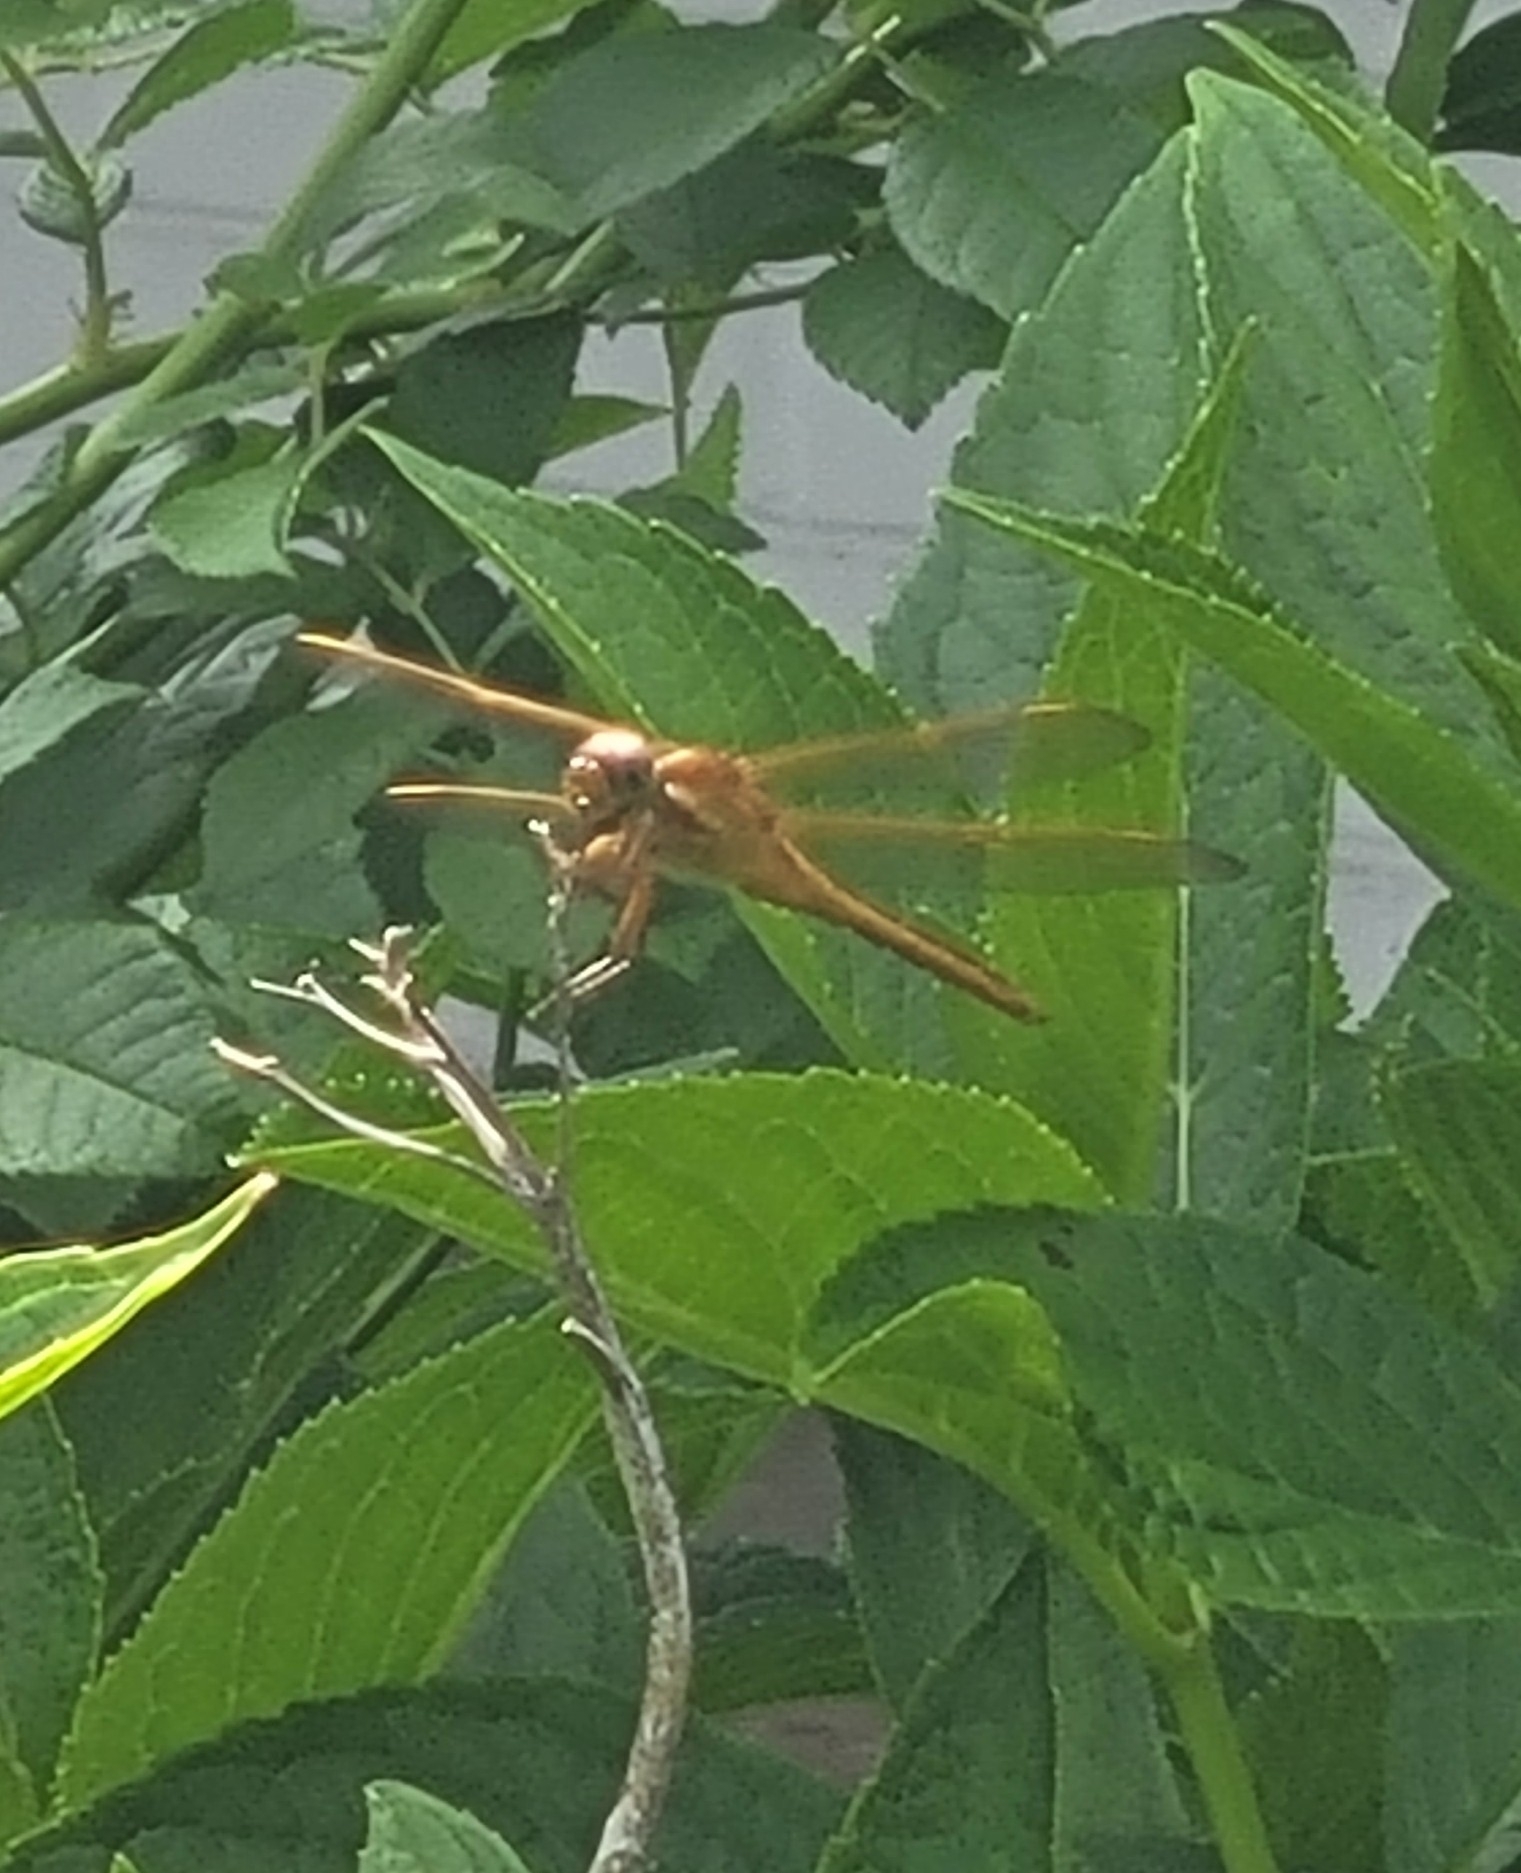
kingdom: Animalia
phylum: Arthropoda
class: Insecta
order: Odonata
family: Libellulidae
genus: Libellula
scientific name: Libellula needhami
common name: Needham's skimmer
